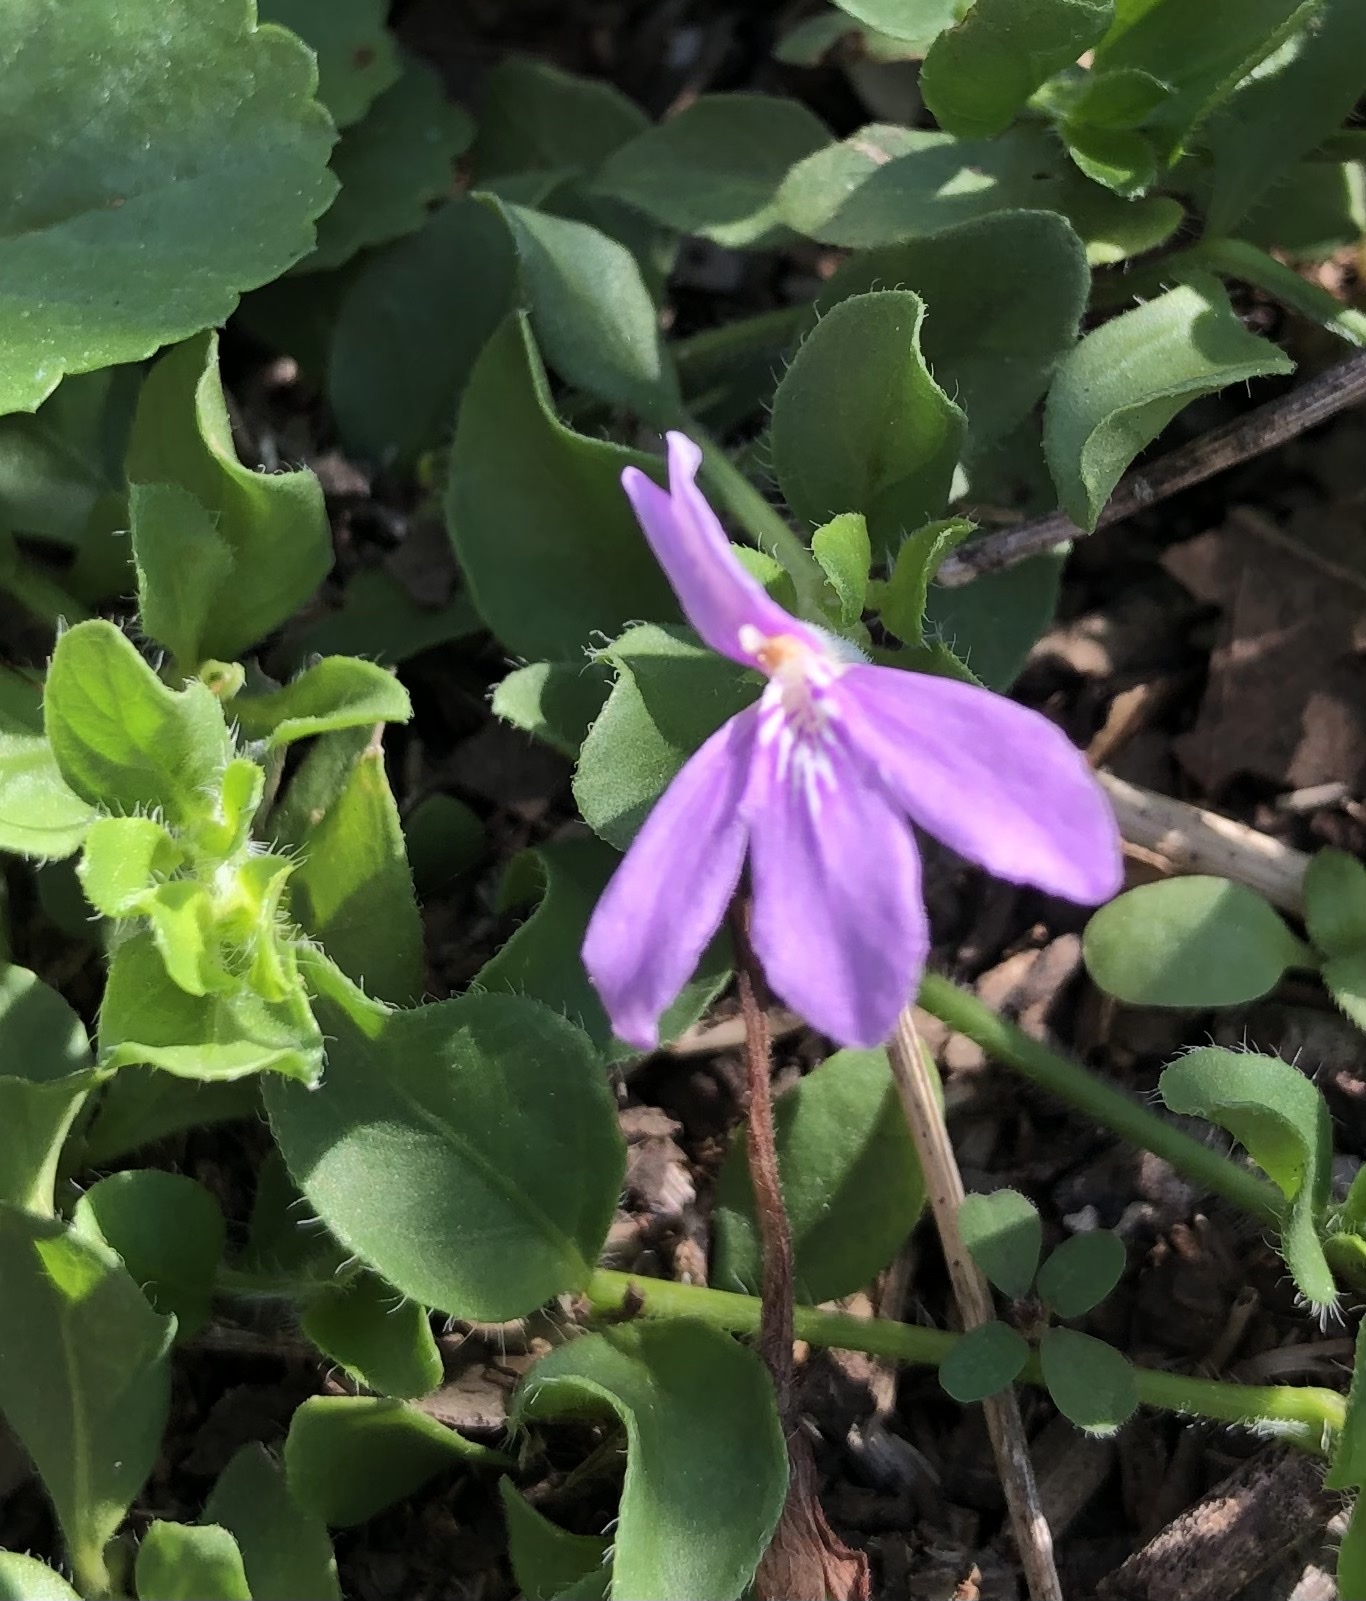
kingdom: Plantae
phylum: Tracheophyta
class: Magnoliopsida
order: Lamiales
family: Acanthaceae
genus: Justicia
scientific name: Justicia pilosella
